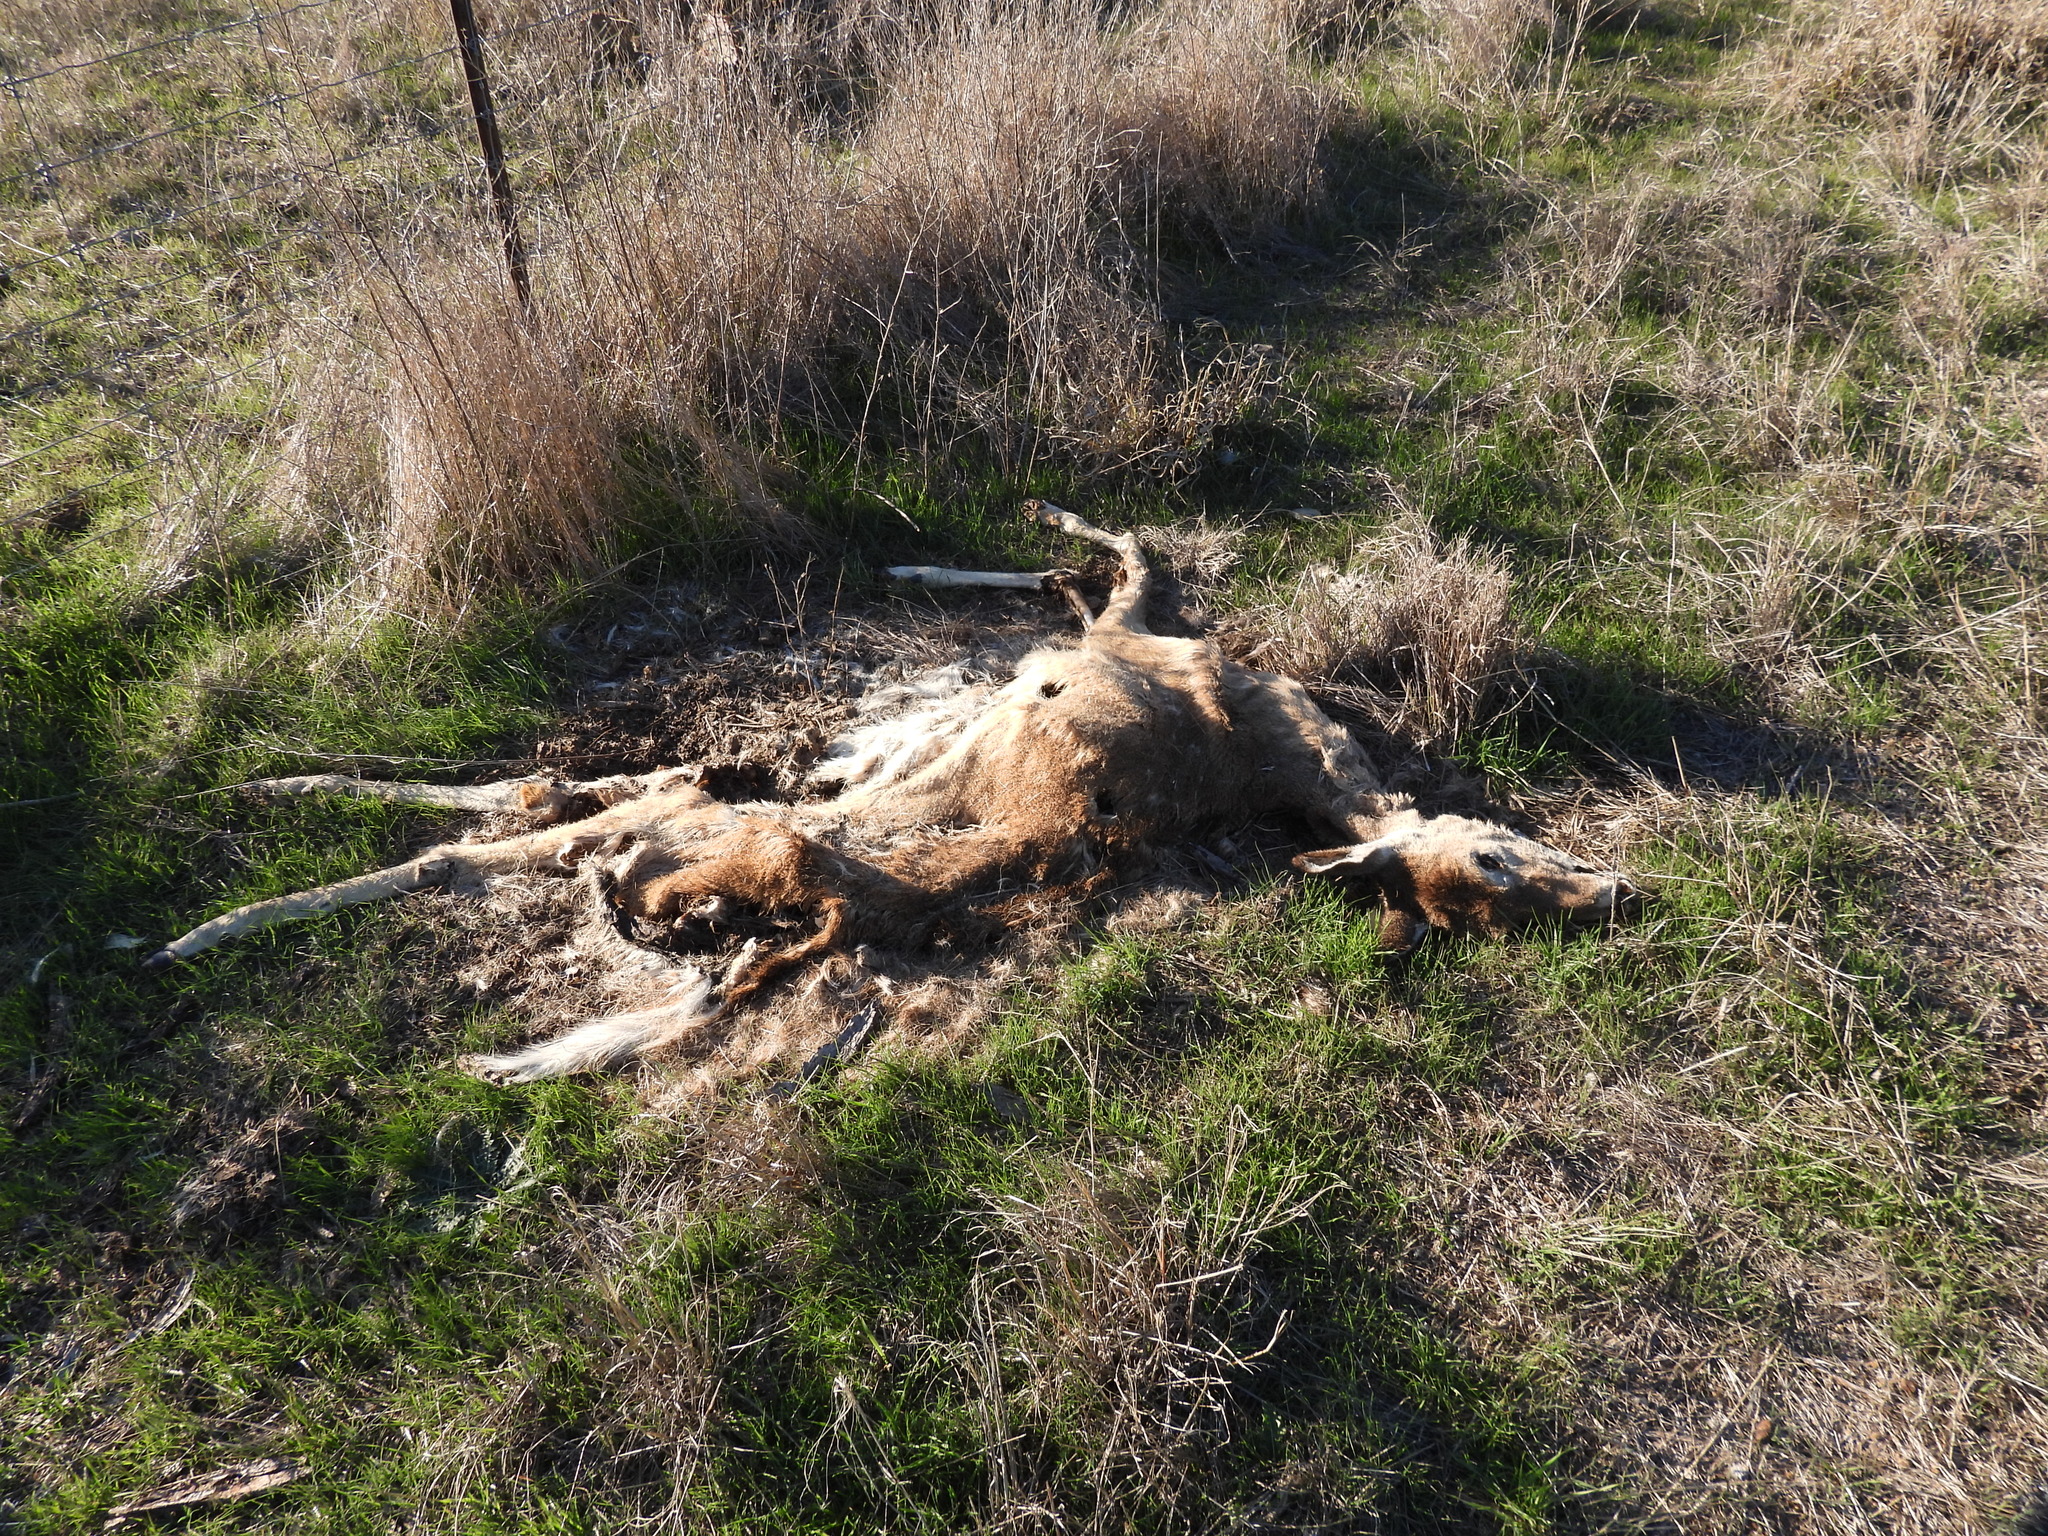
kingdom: Animalia
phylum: Chordata
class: Mammalia
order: Artiodactyla
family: Cervidae
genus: Odocoileus
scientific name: Odocoileus virginianus
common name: White-tailed deer
